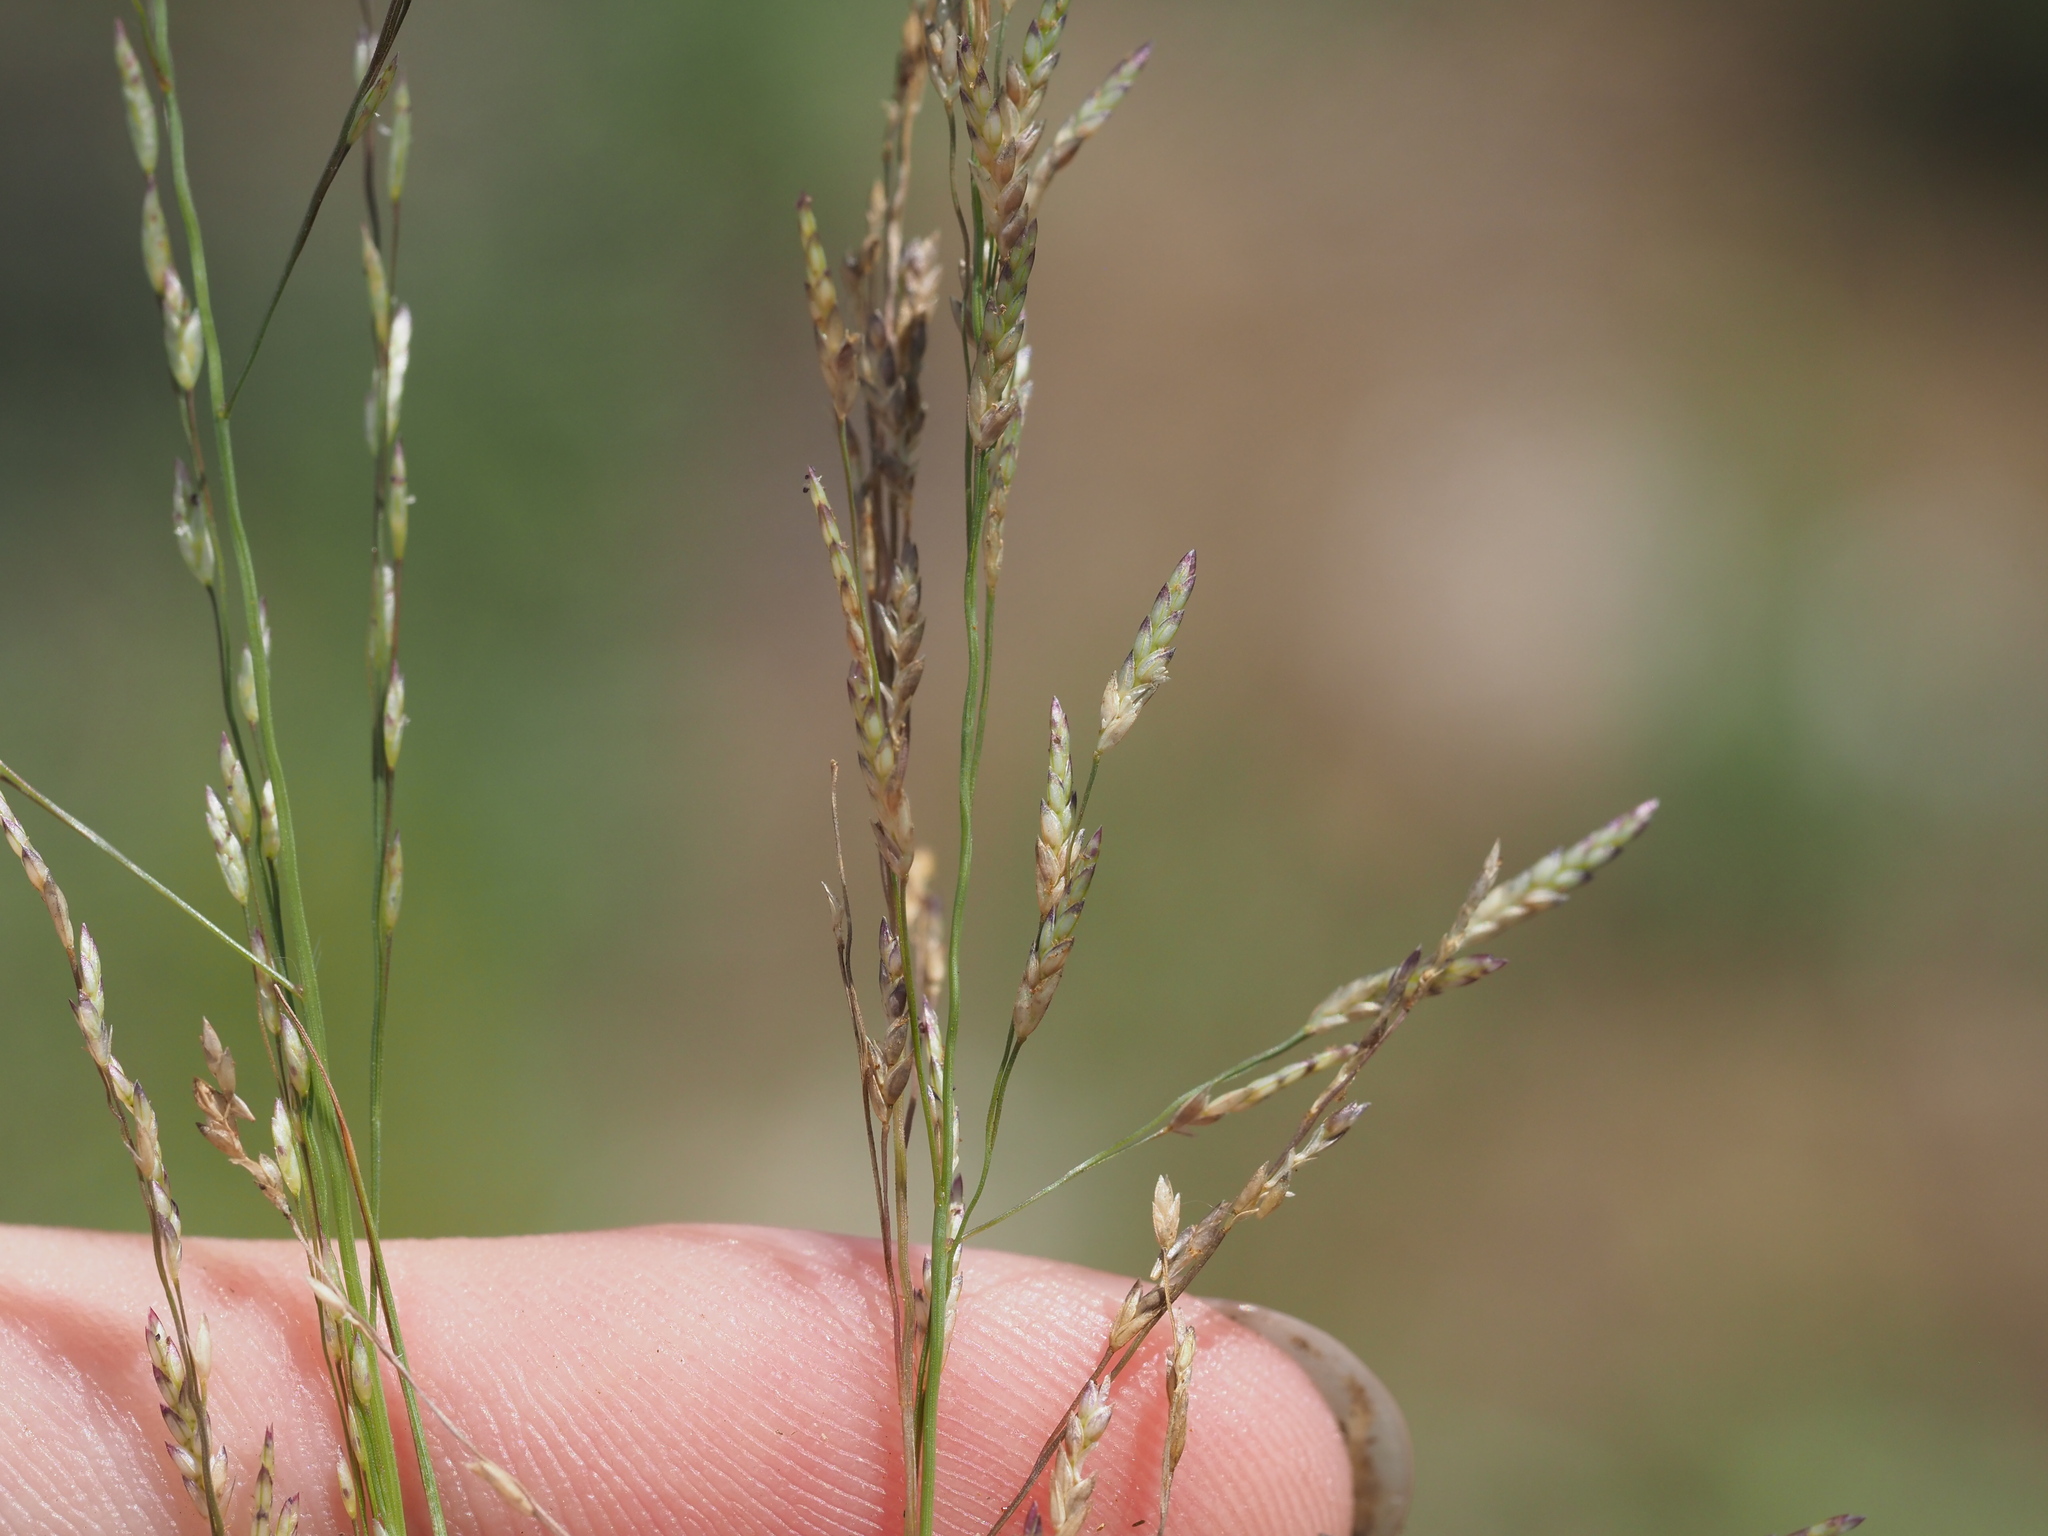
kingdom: Plantae
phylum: Tracheophyta
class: Liliopsida
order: Poales
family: Poaceae
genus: Eragrostis
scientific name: Eragrostis pectinacea
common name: Tufted lovegrass
